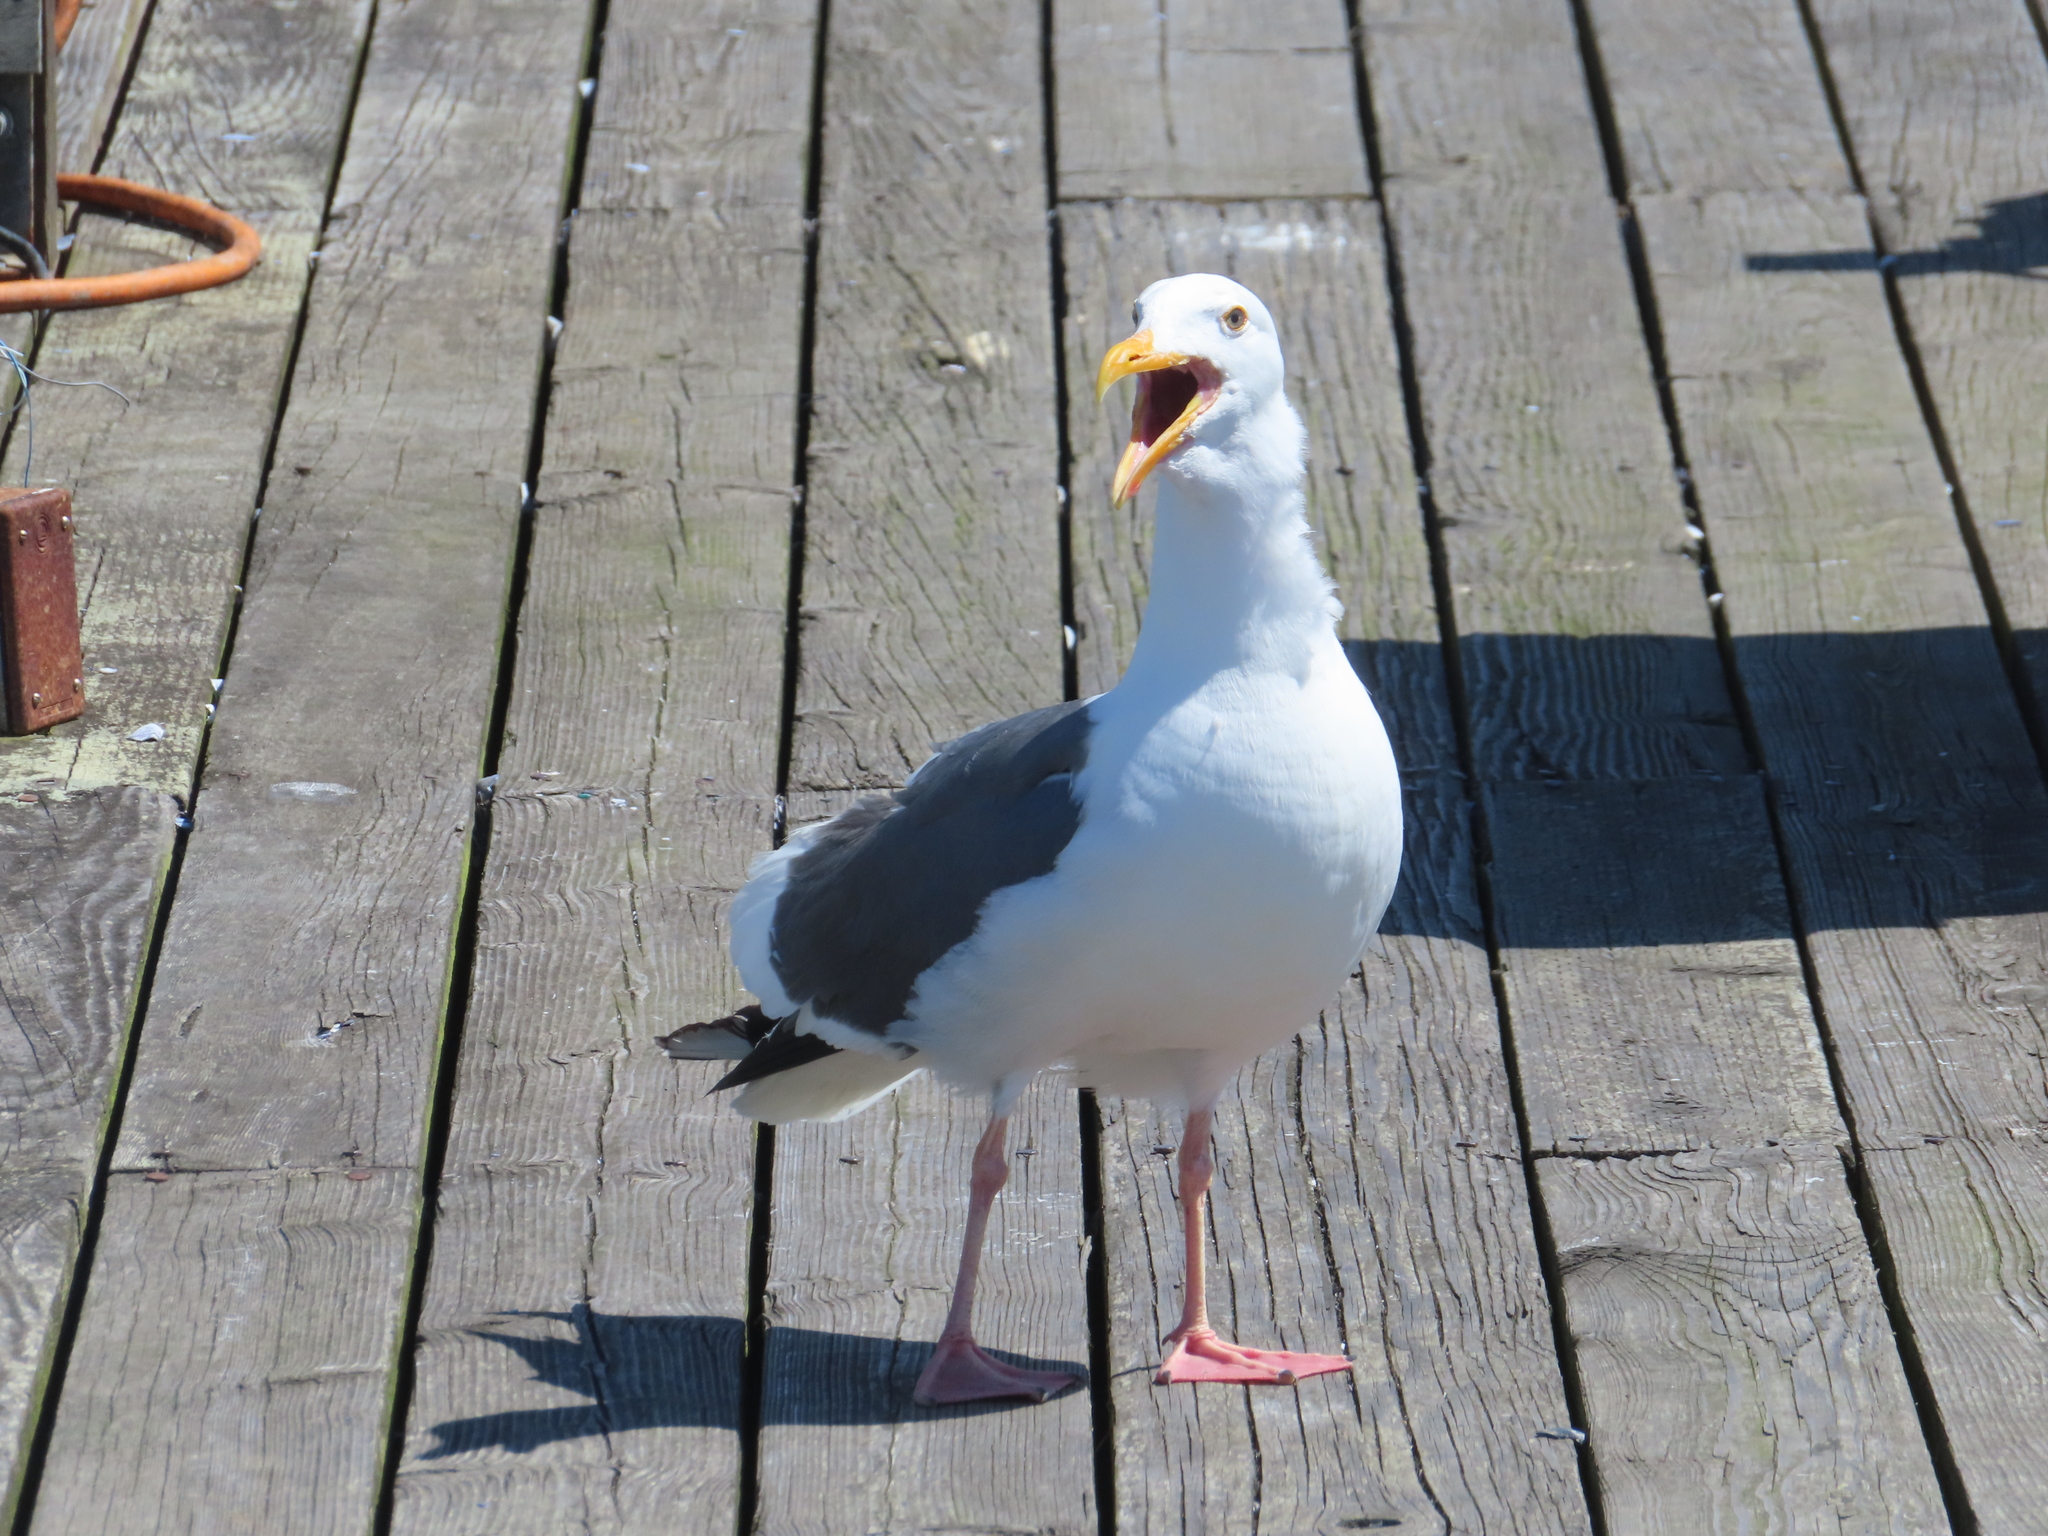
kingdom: Animalia
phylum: Chordata
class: Aves
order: Charadriiformes
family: Laridae
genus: Larus
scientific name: Larus occidentalis
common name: Western gull
